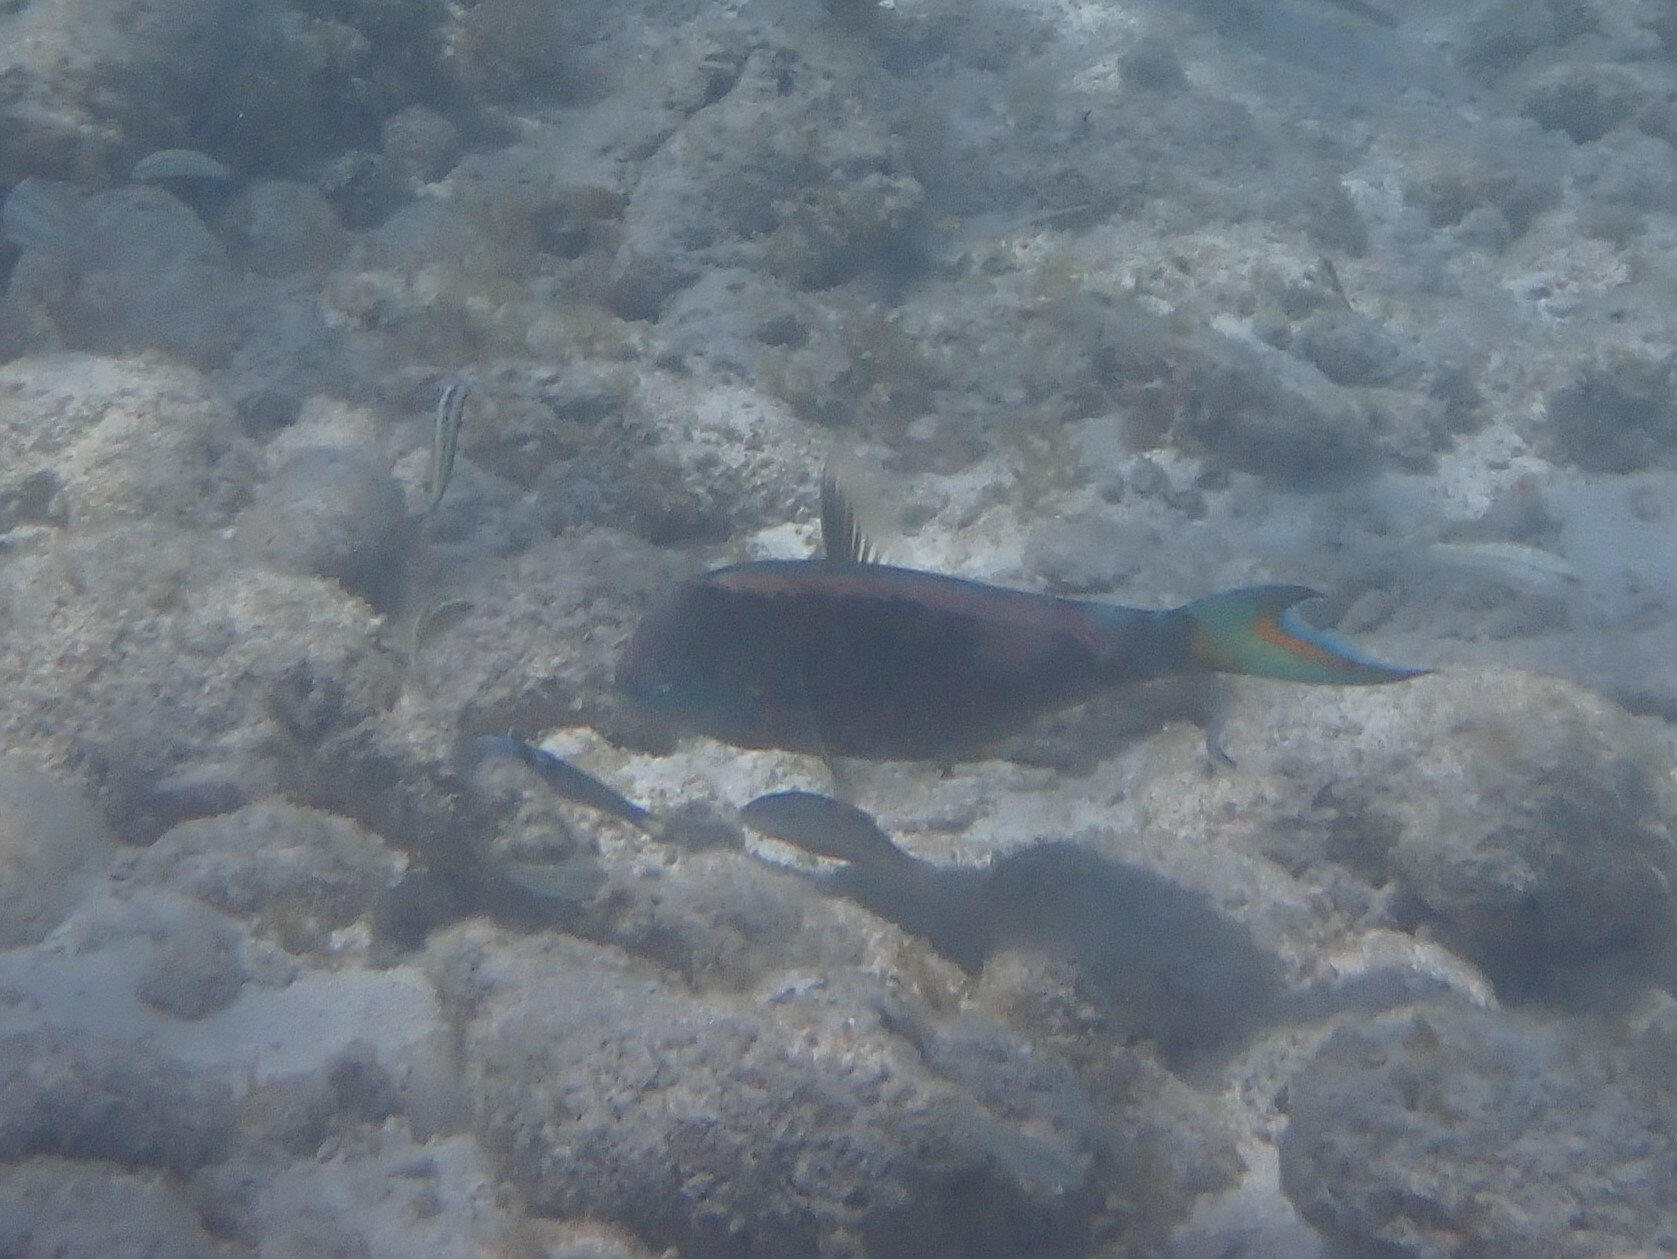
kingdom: Animalia
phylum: Chordata
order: Perciformes
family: Scaridae
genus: Sparisoma
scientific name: Sparisoma viride
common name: Stoplight parrotfish
